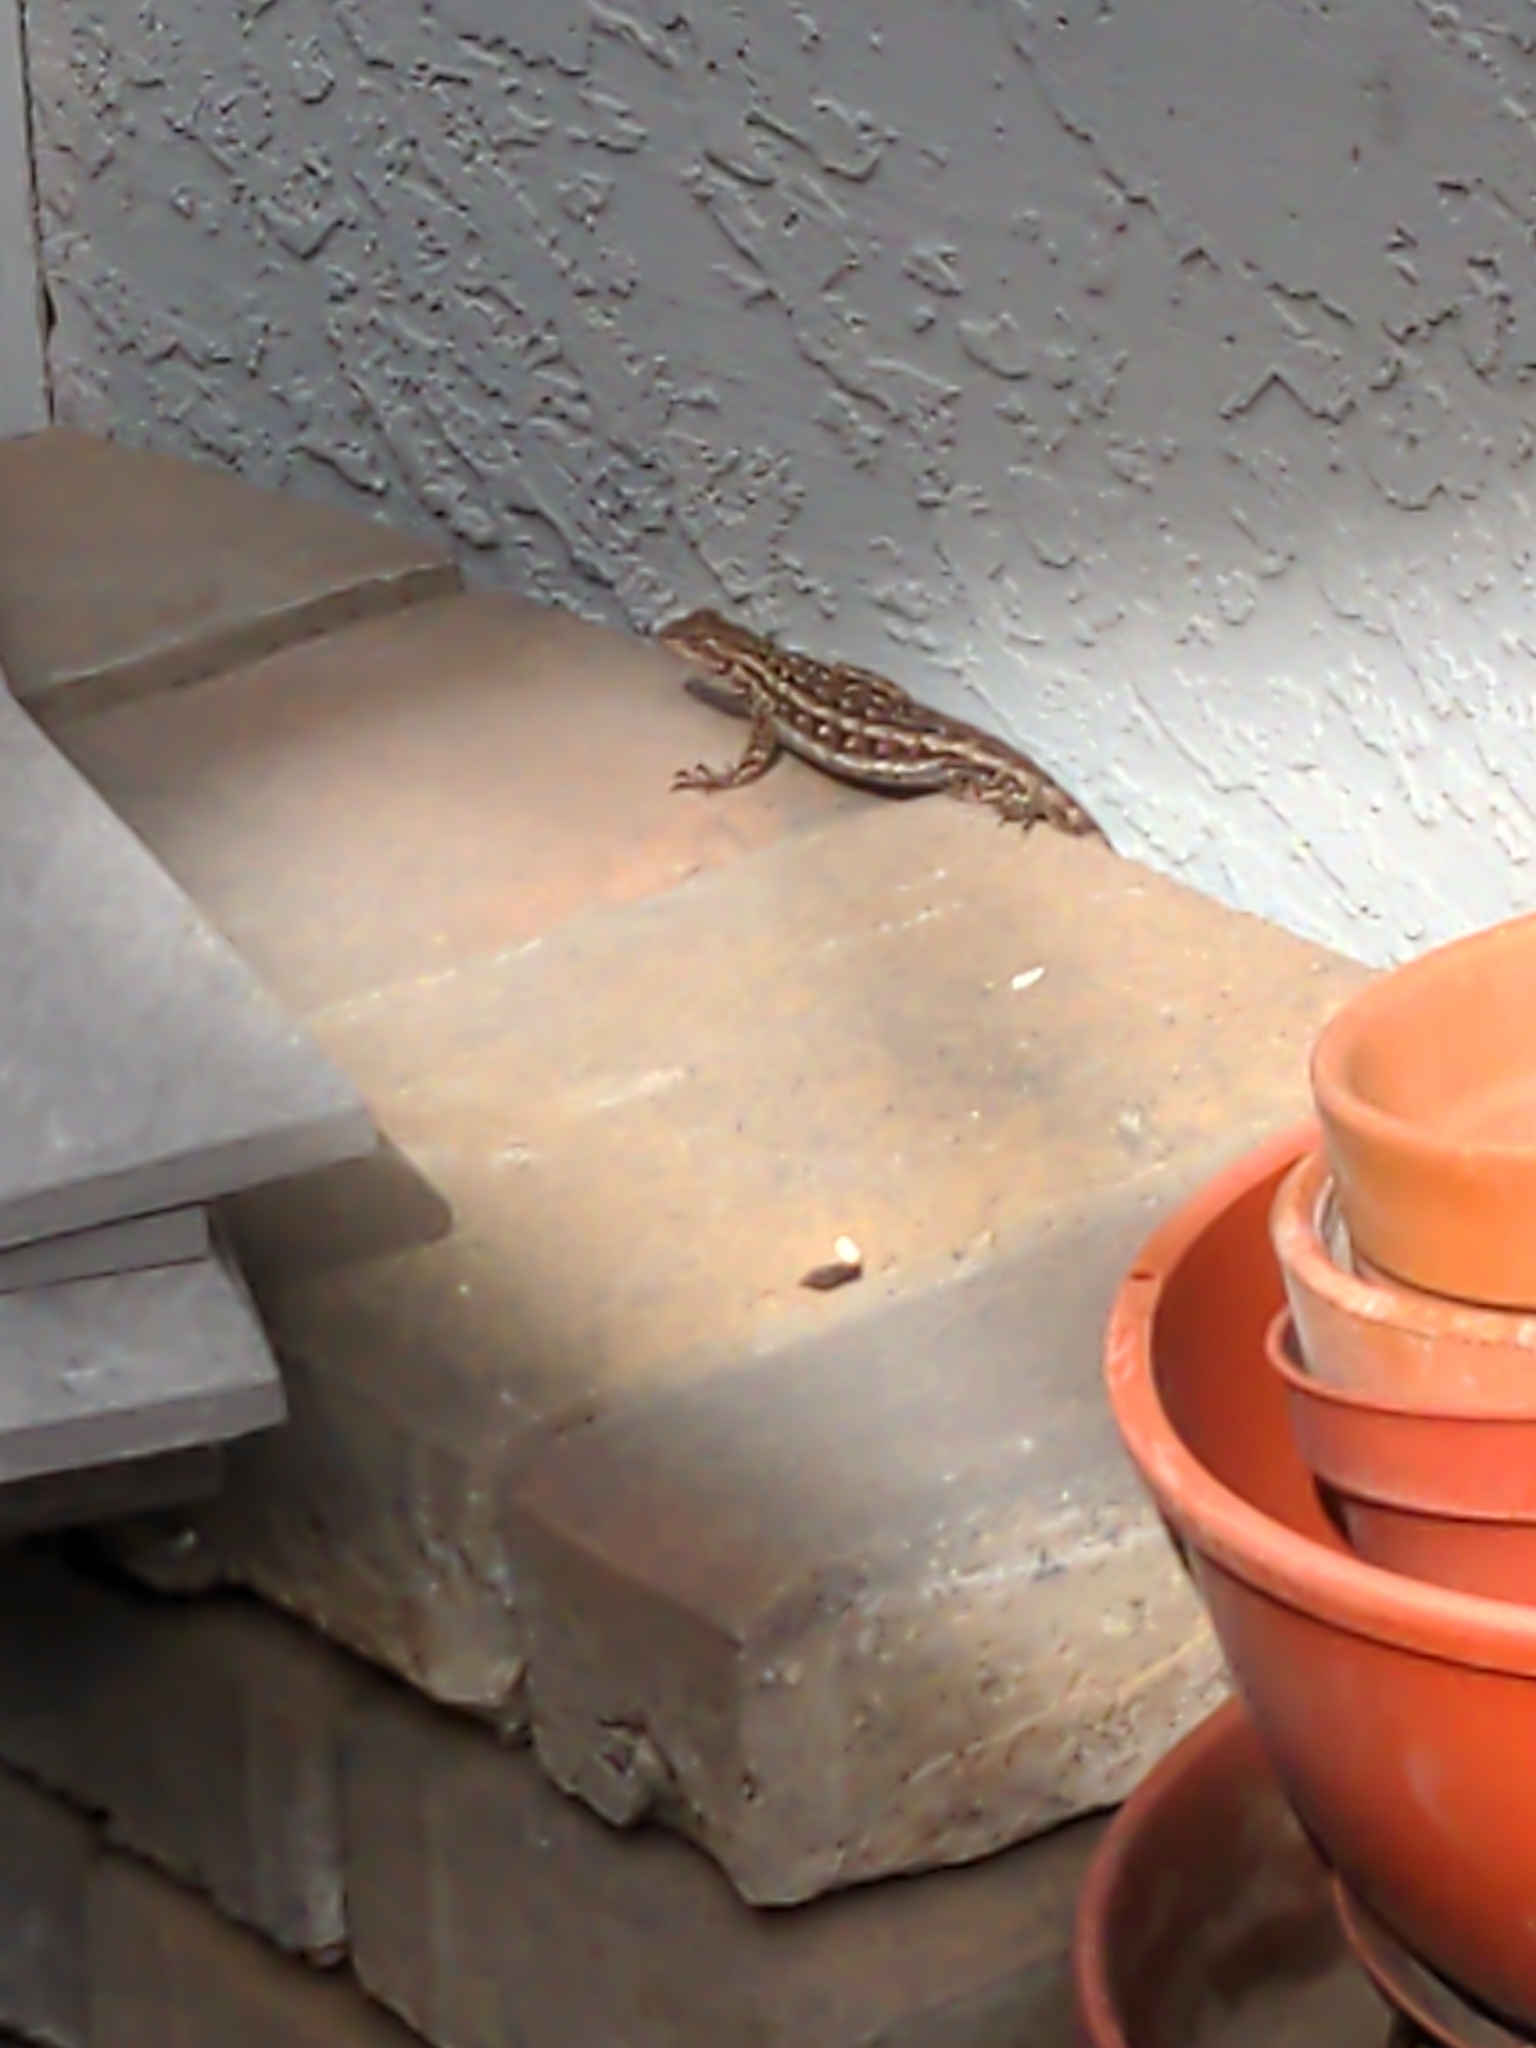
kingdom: Animalia
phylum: Chordata
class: Squamata
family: Phrynosomatidae
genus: Sceloporus
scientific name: Sceloporus occidentalis
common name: Western fence lizard
